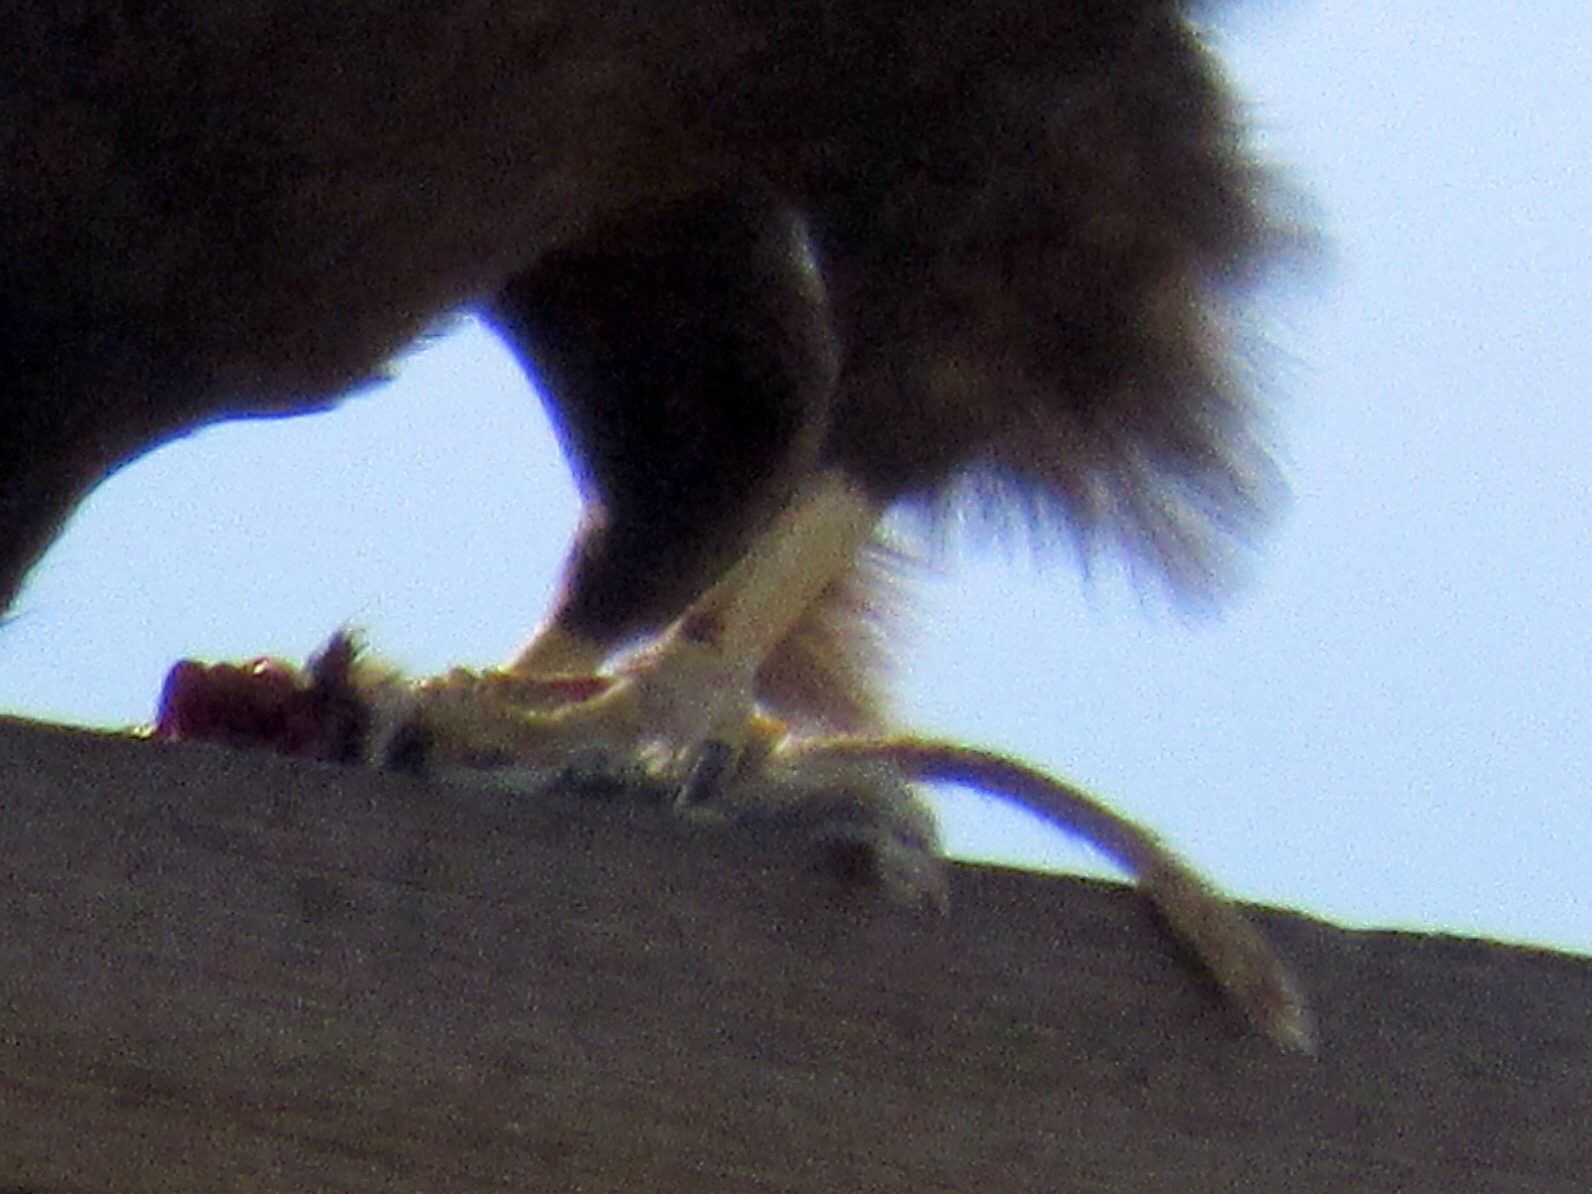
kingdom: Animalia
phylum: Chordata
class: Mammalia
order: Rodentia
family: Sciuridae
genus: Xerospermophilus
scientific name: Xerospermophilus tereticaudus
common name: Round-tailed ground squirrel
